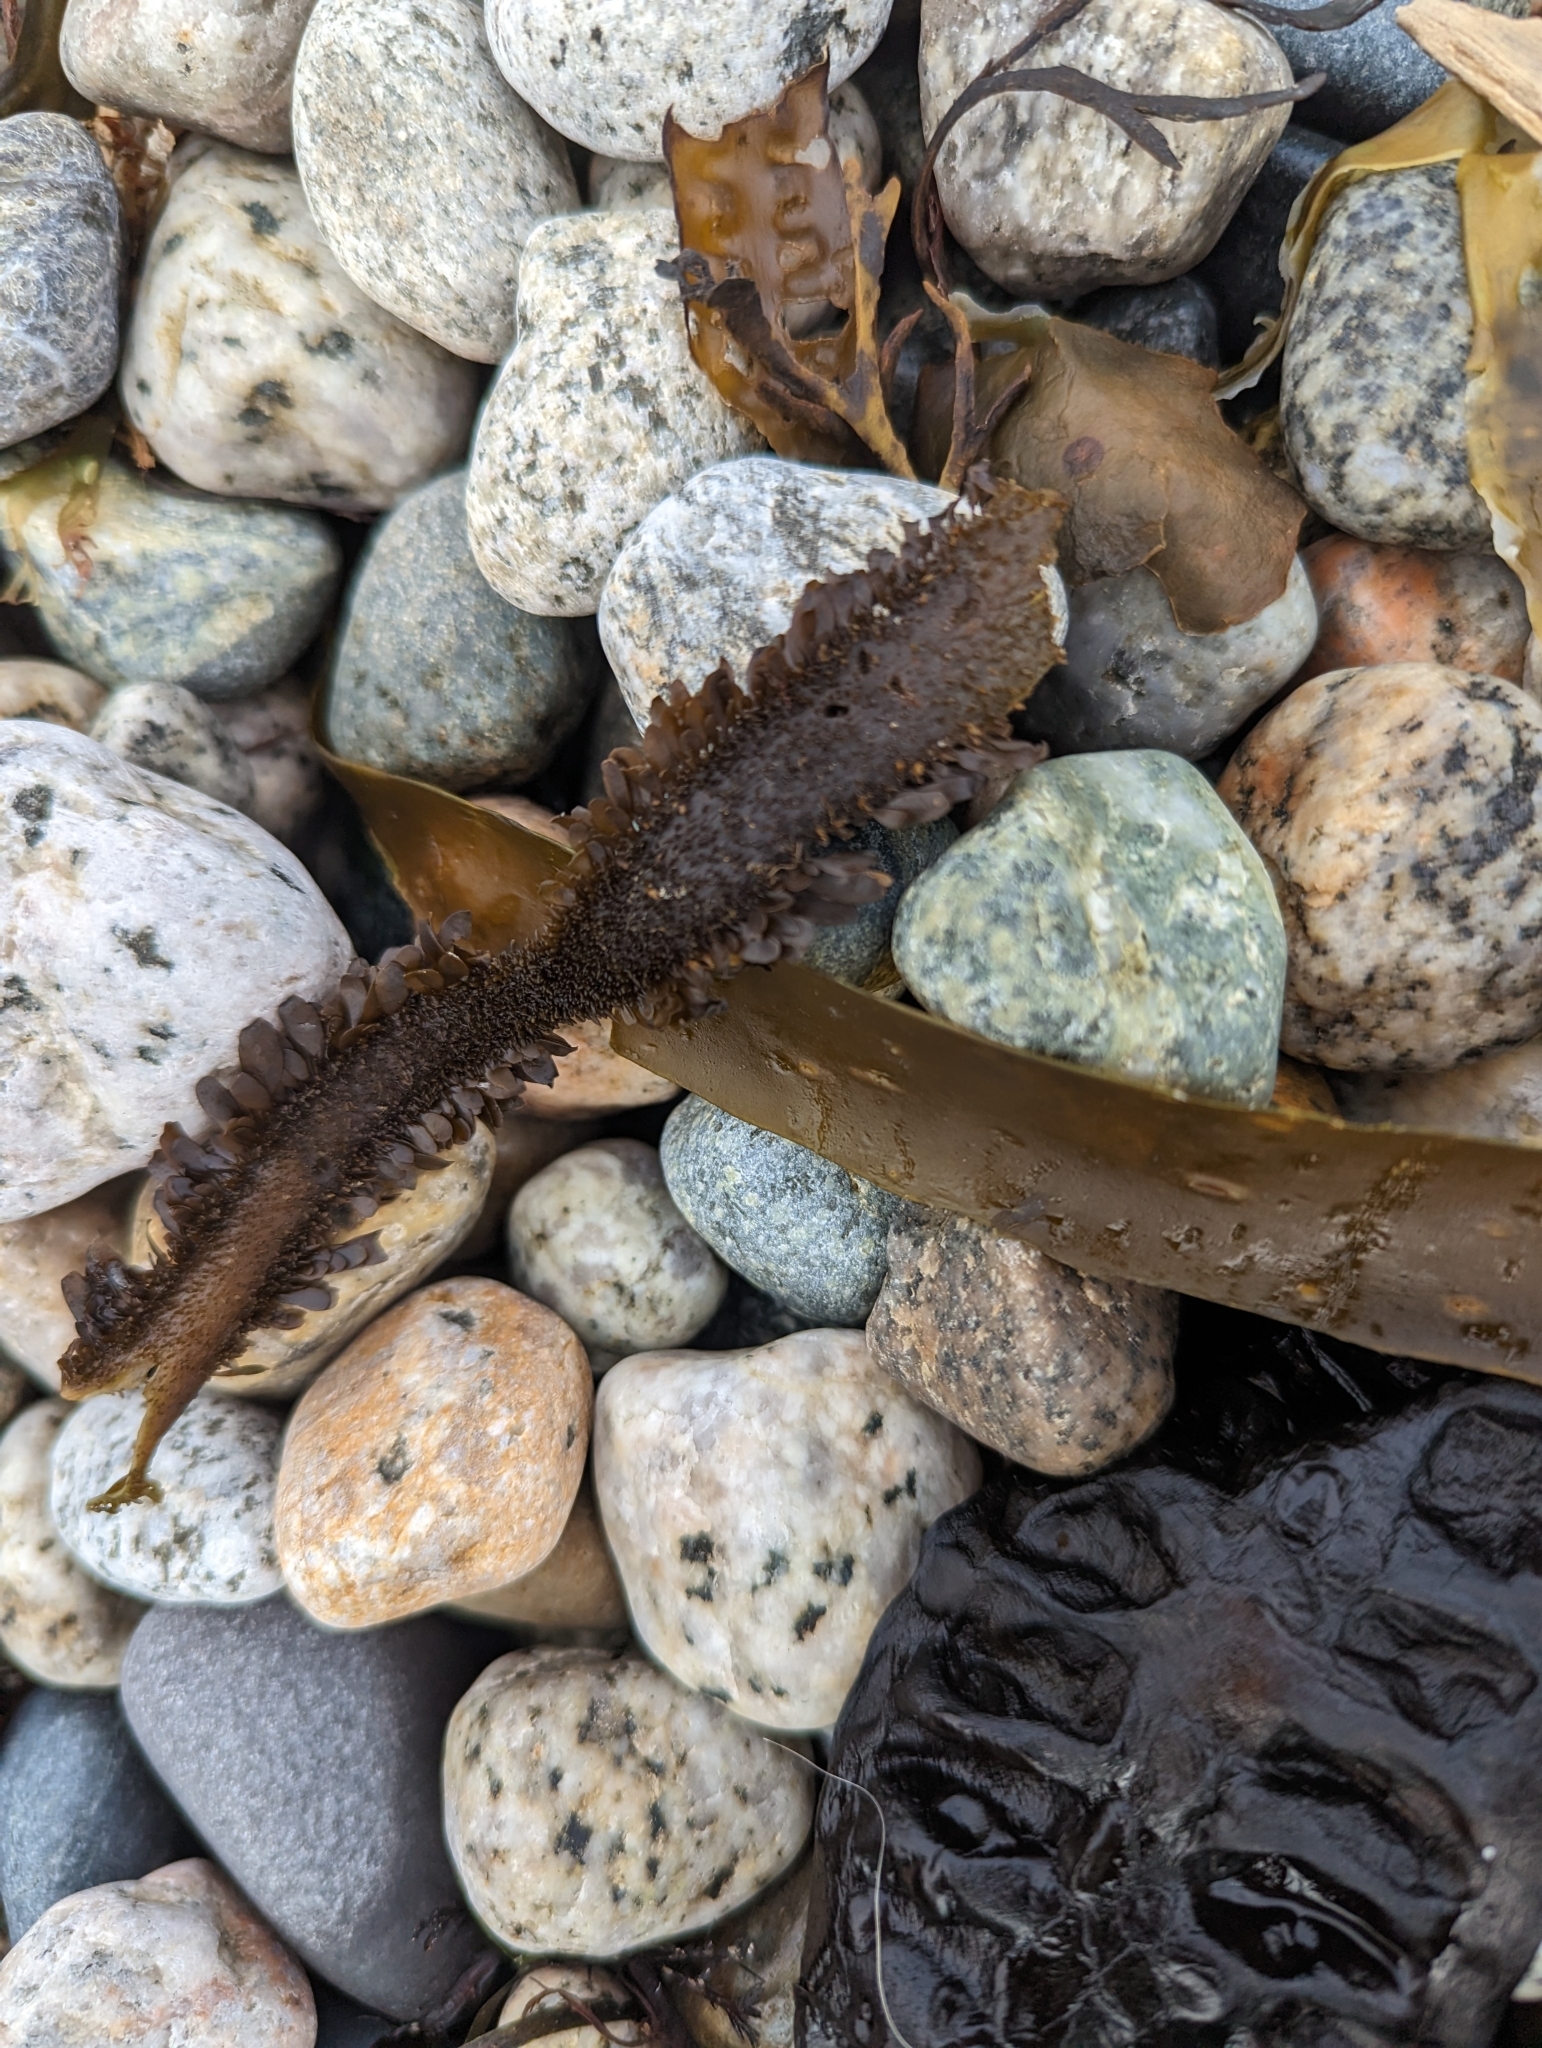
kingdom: Chromista
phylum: Ochrophyta
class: Phaeophyceae
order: Laminariales
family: Lessoniaceae
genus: Egregia
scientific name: Egregia menziesii
